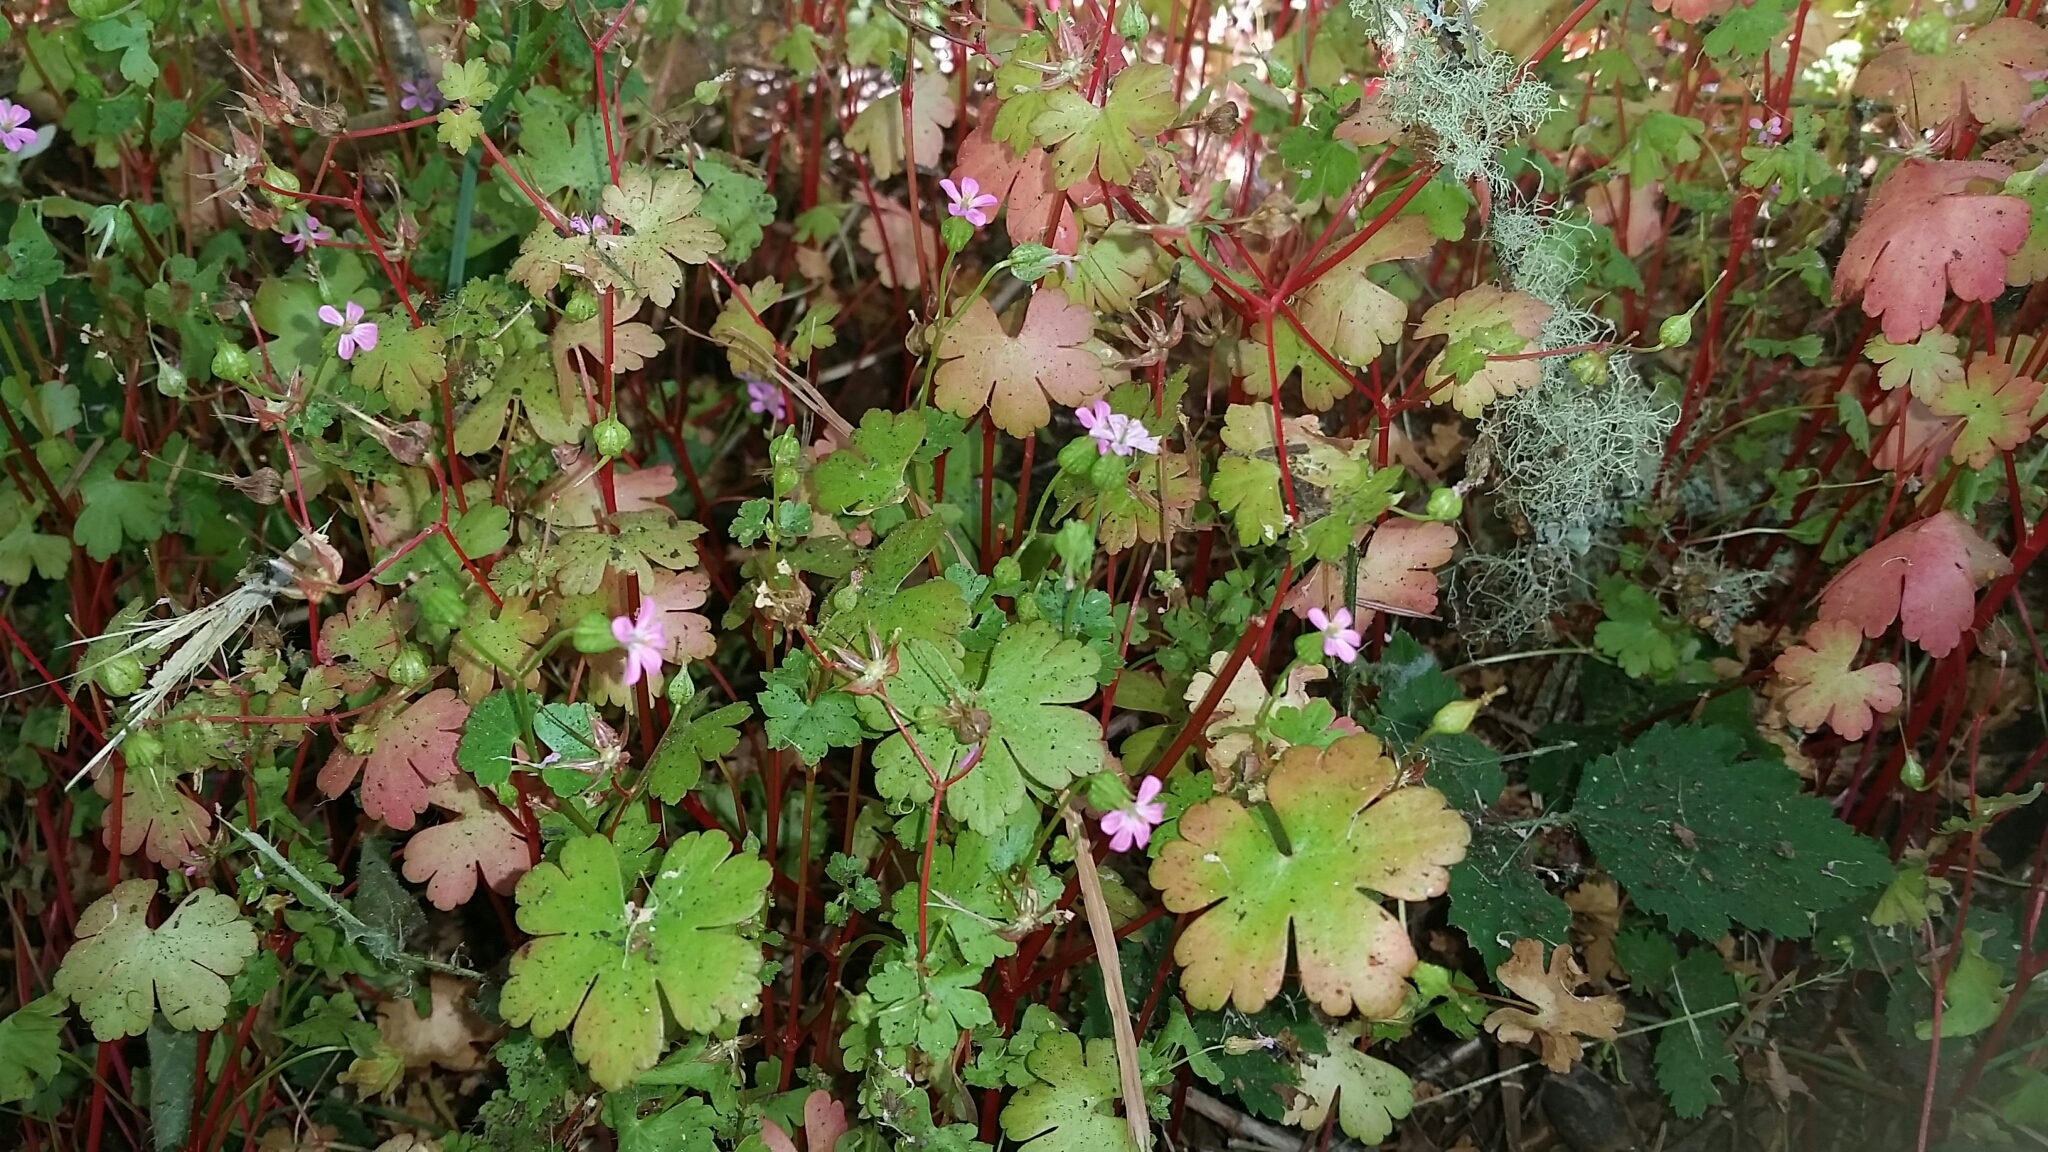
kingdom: Plantae
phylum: Tracheophyta
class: Magnoliopsida
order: Geraniales
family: Geraniaceae
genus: Geranium
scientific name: Geranium lucidum
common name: Shining crane's-bill
